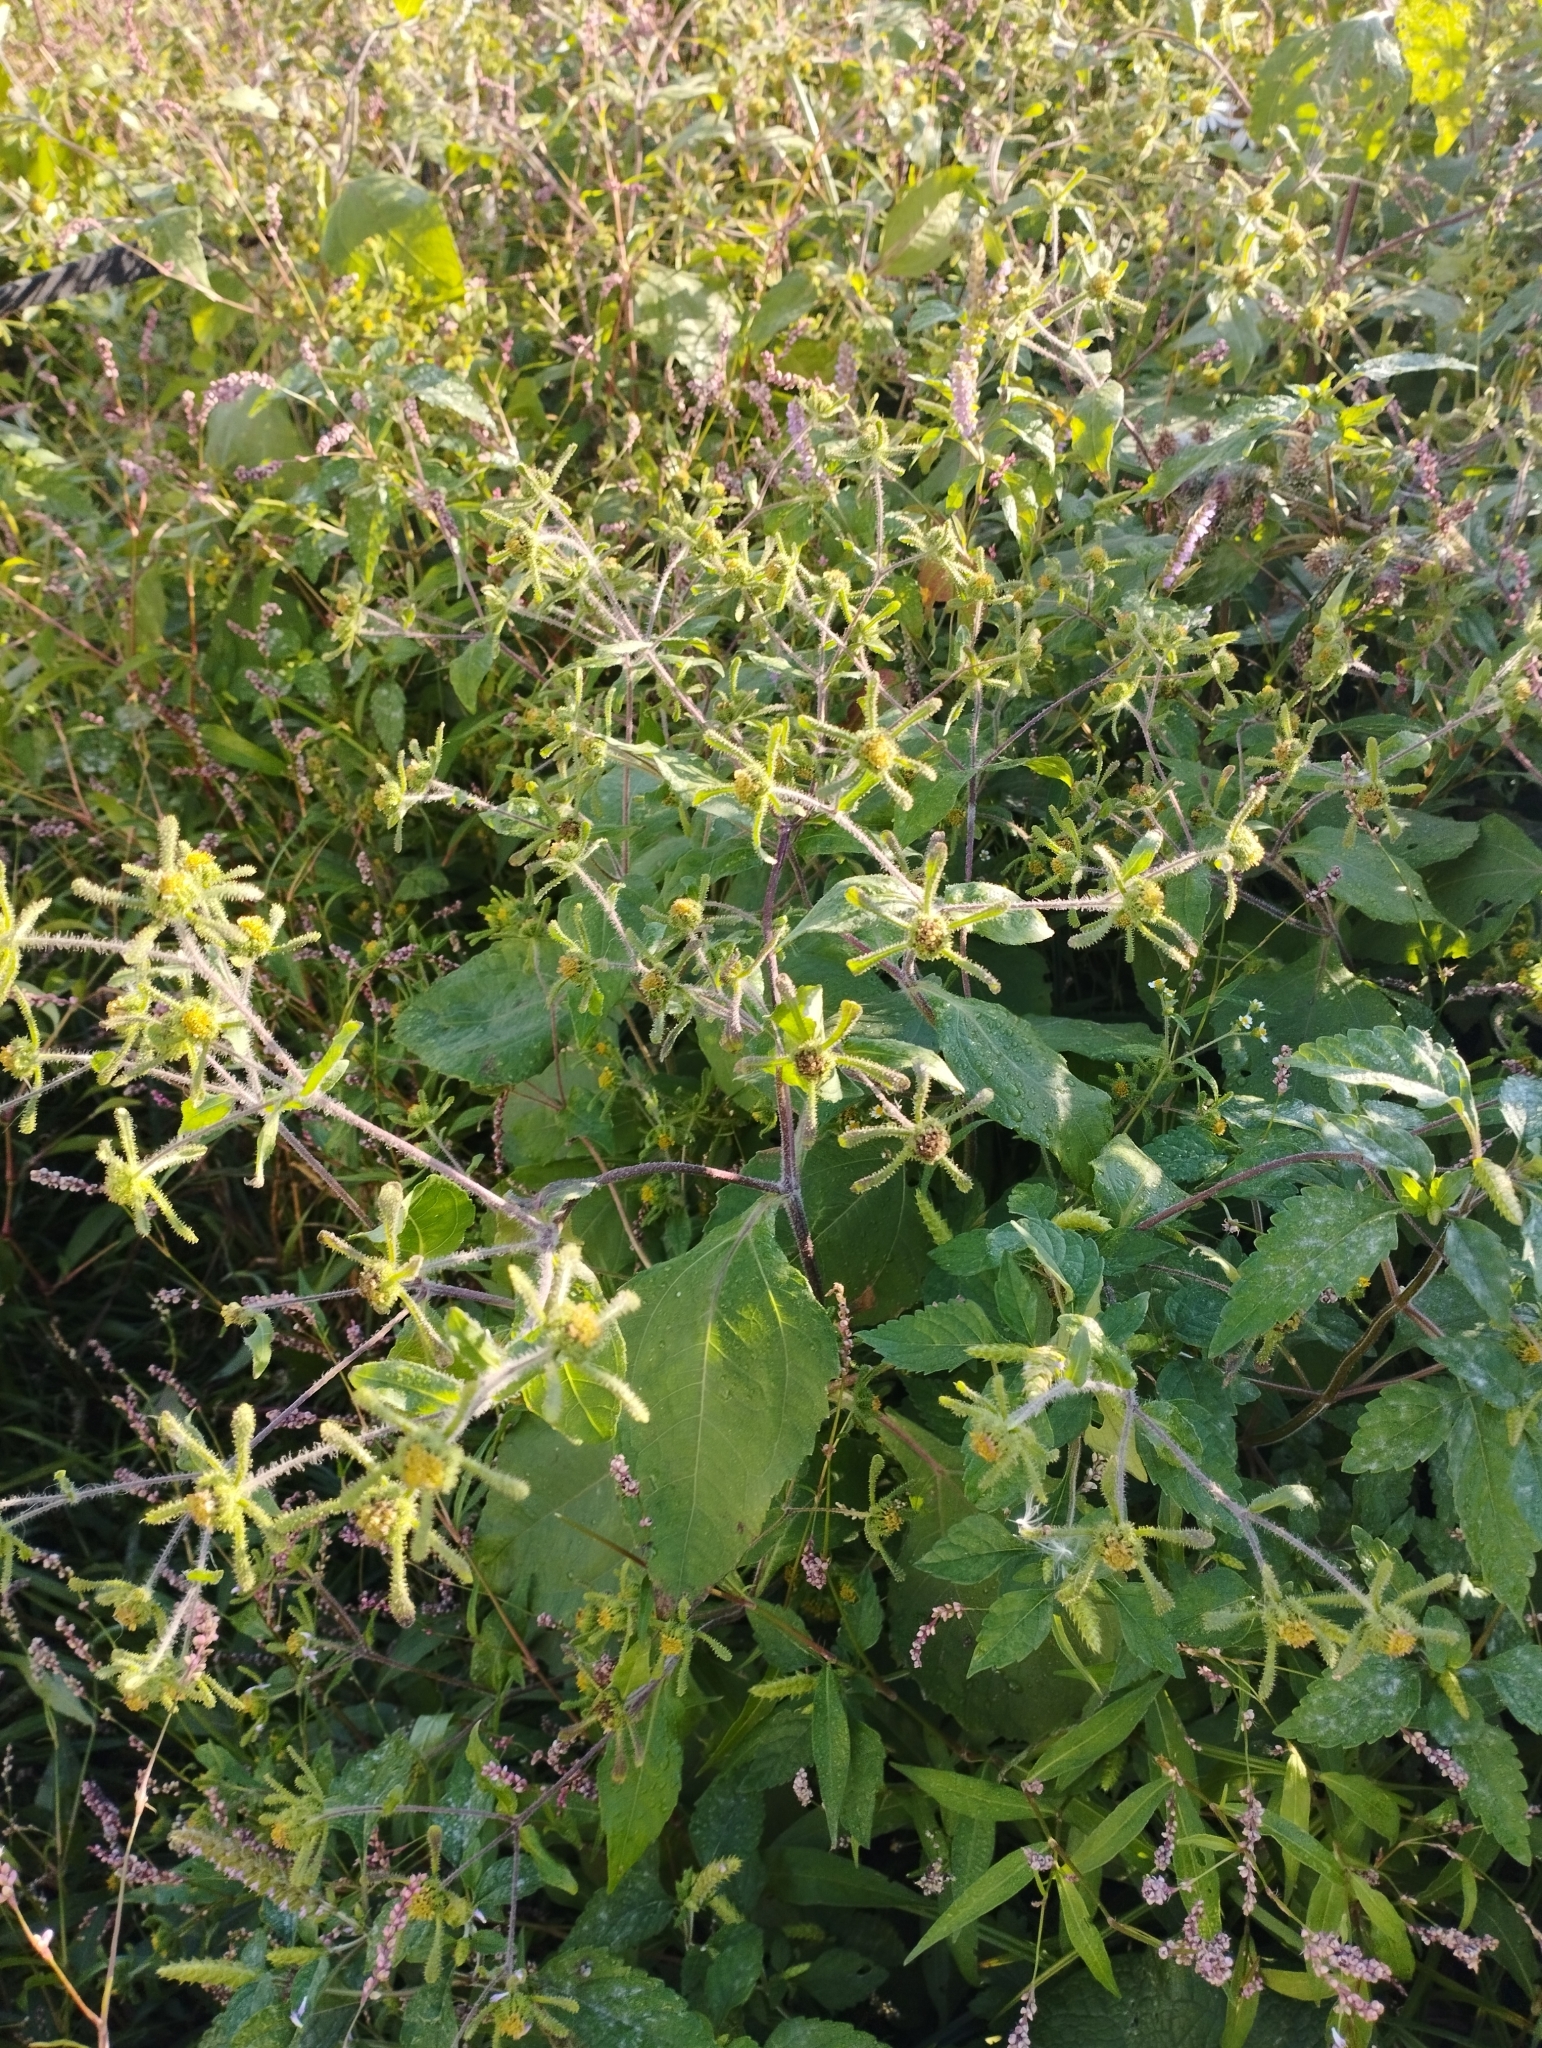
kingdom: Plantae
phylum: Tracheophyta
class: Magnoliopsida
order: Asterales
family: Asteraceae
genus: Sigesbeckia
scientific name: Sigesbeckia orientalis
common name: Eastern st paul's-wort
